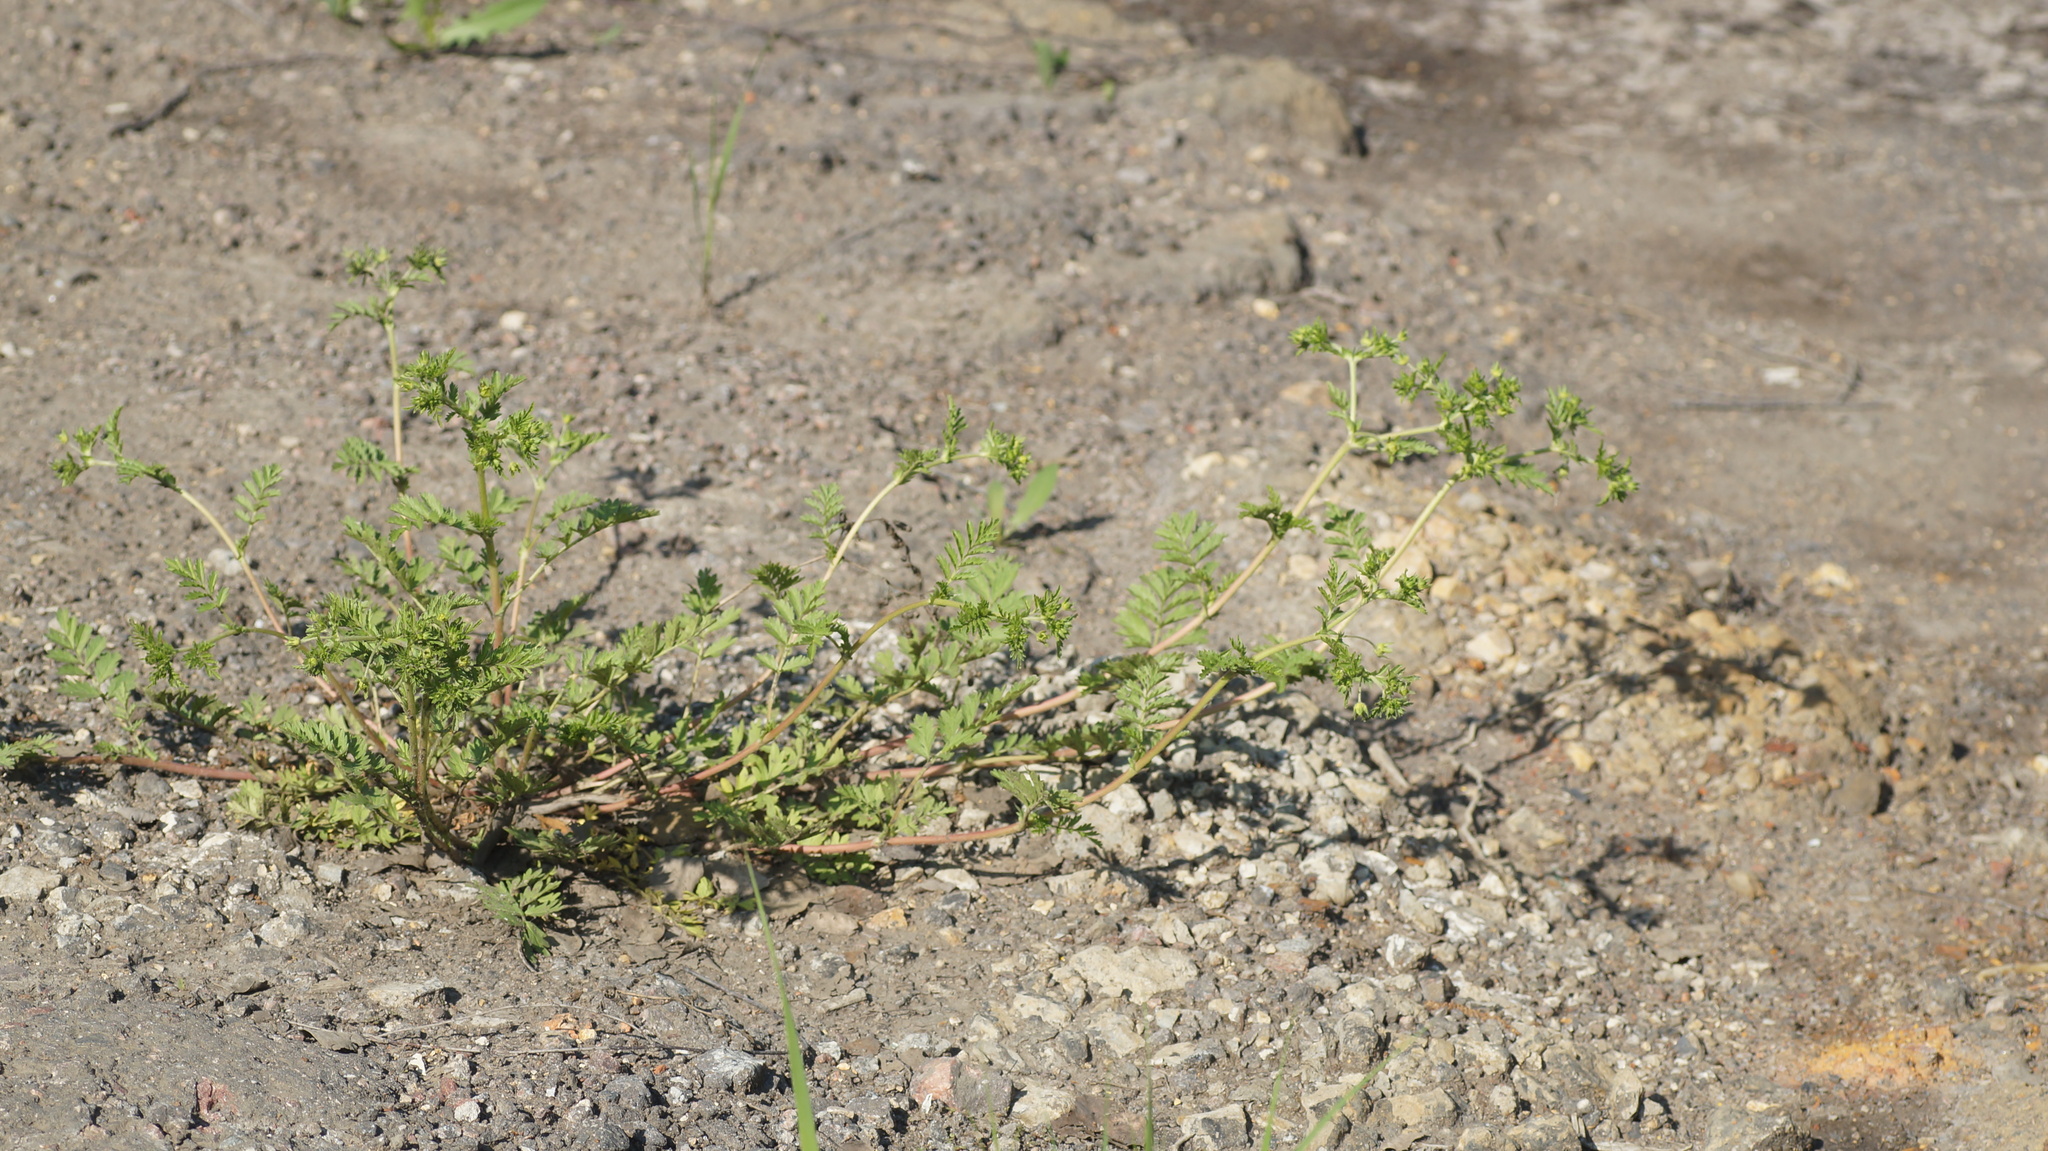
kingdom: Plantae
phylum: Tracheophyta
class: Magnoliopsida
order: Rosales
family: Rosaceae
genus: Potentilla
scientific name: Potentilla supina
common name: Prostrate cinquefoil
